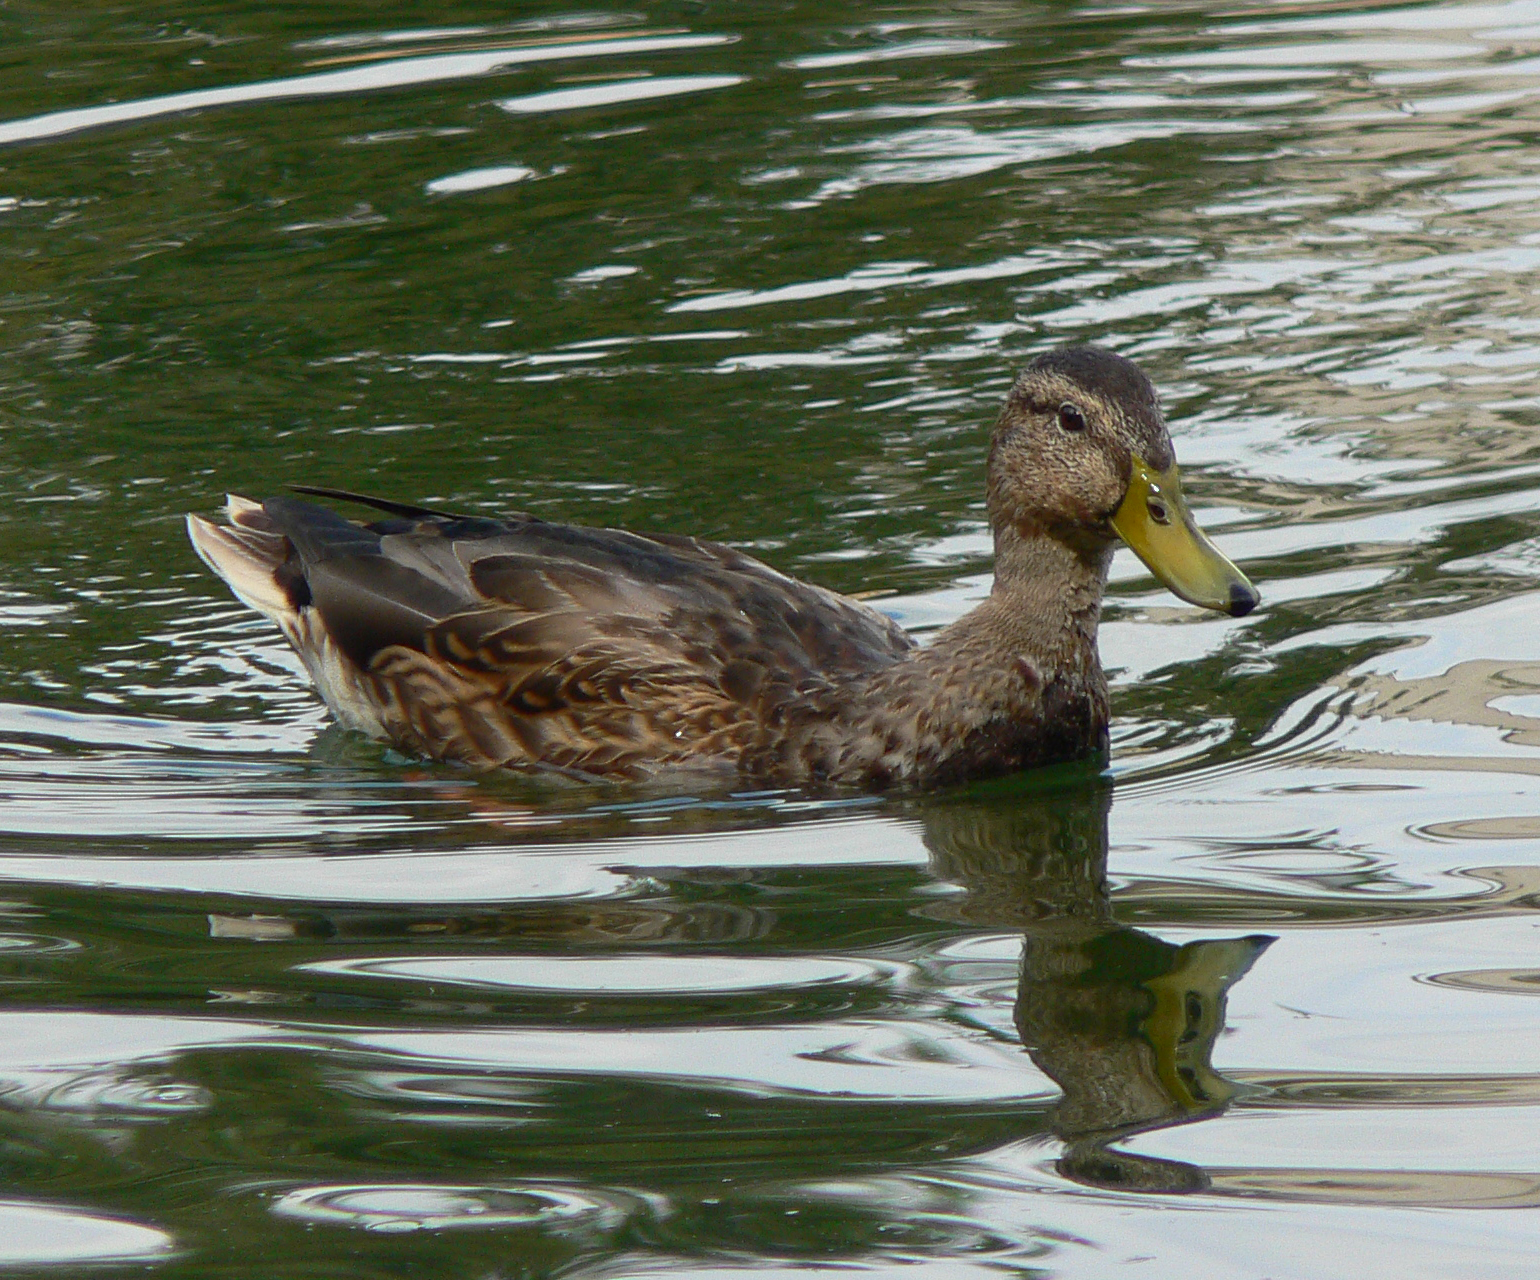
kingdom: Animalia
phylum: Chordata
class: Aves
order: Anseriformes
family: Anatidae
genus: Anas
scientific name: Anas platyrhynchos
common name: Mallard
